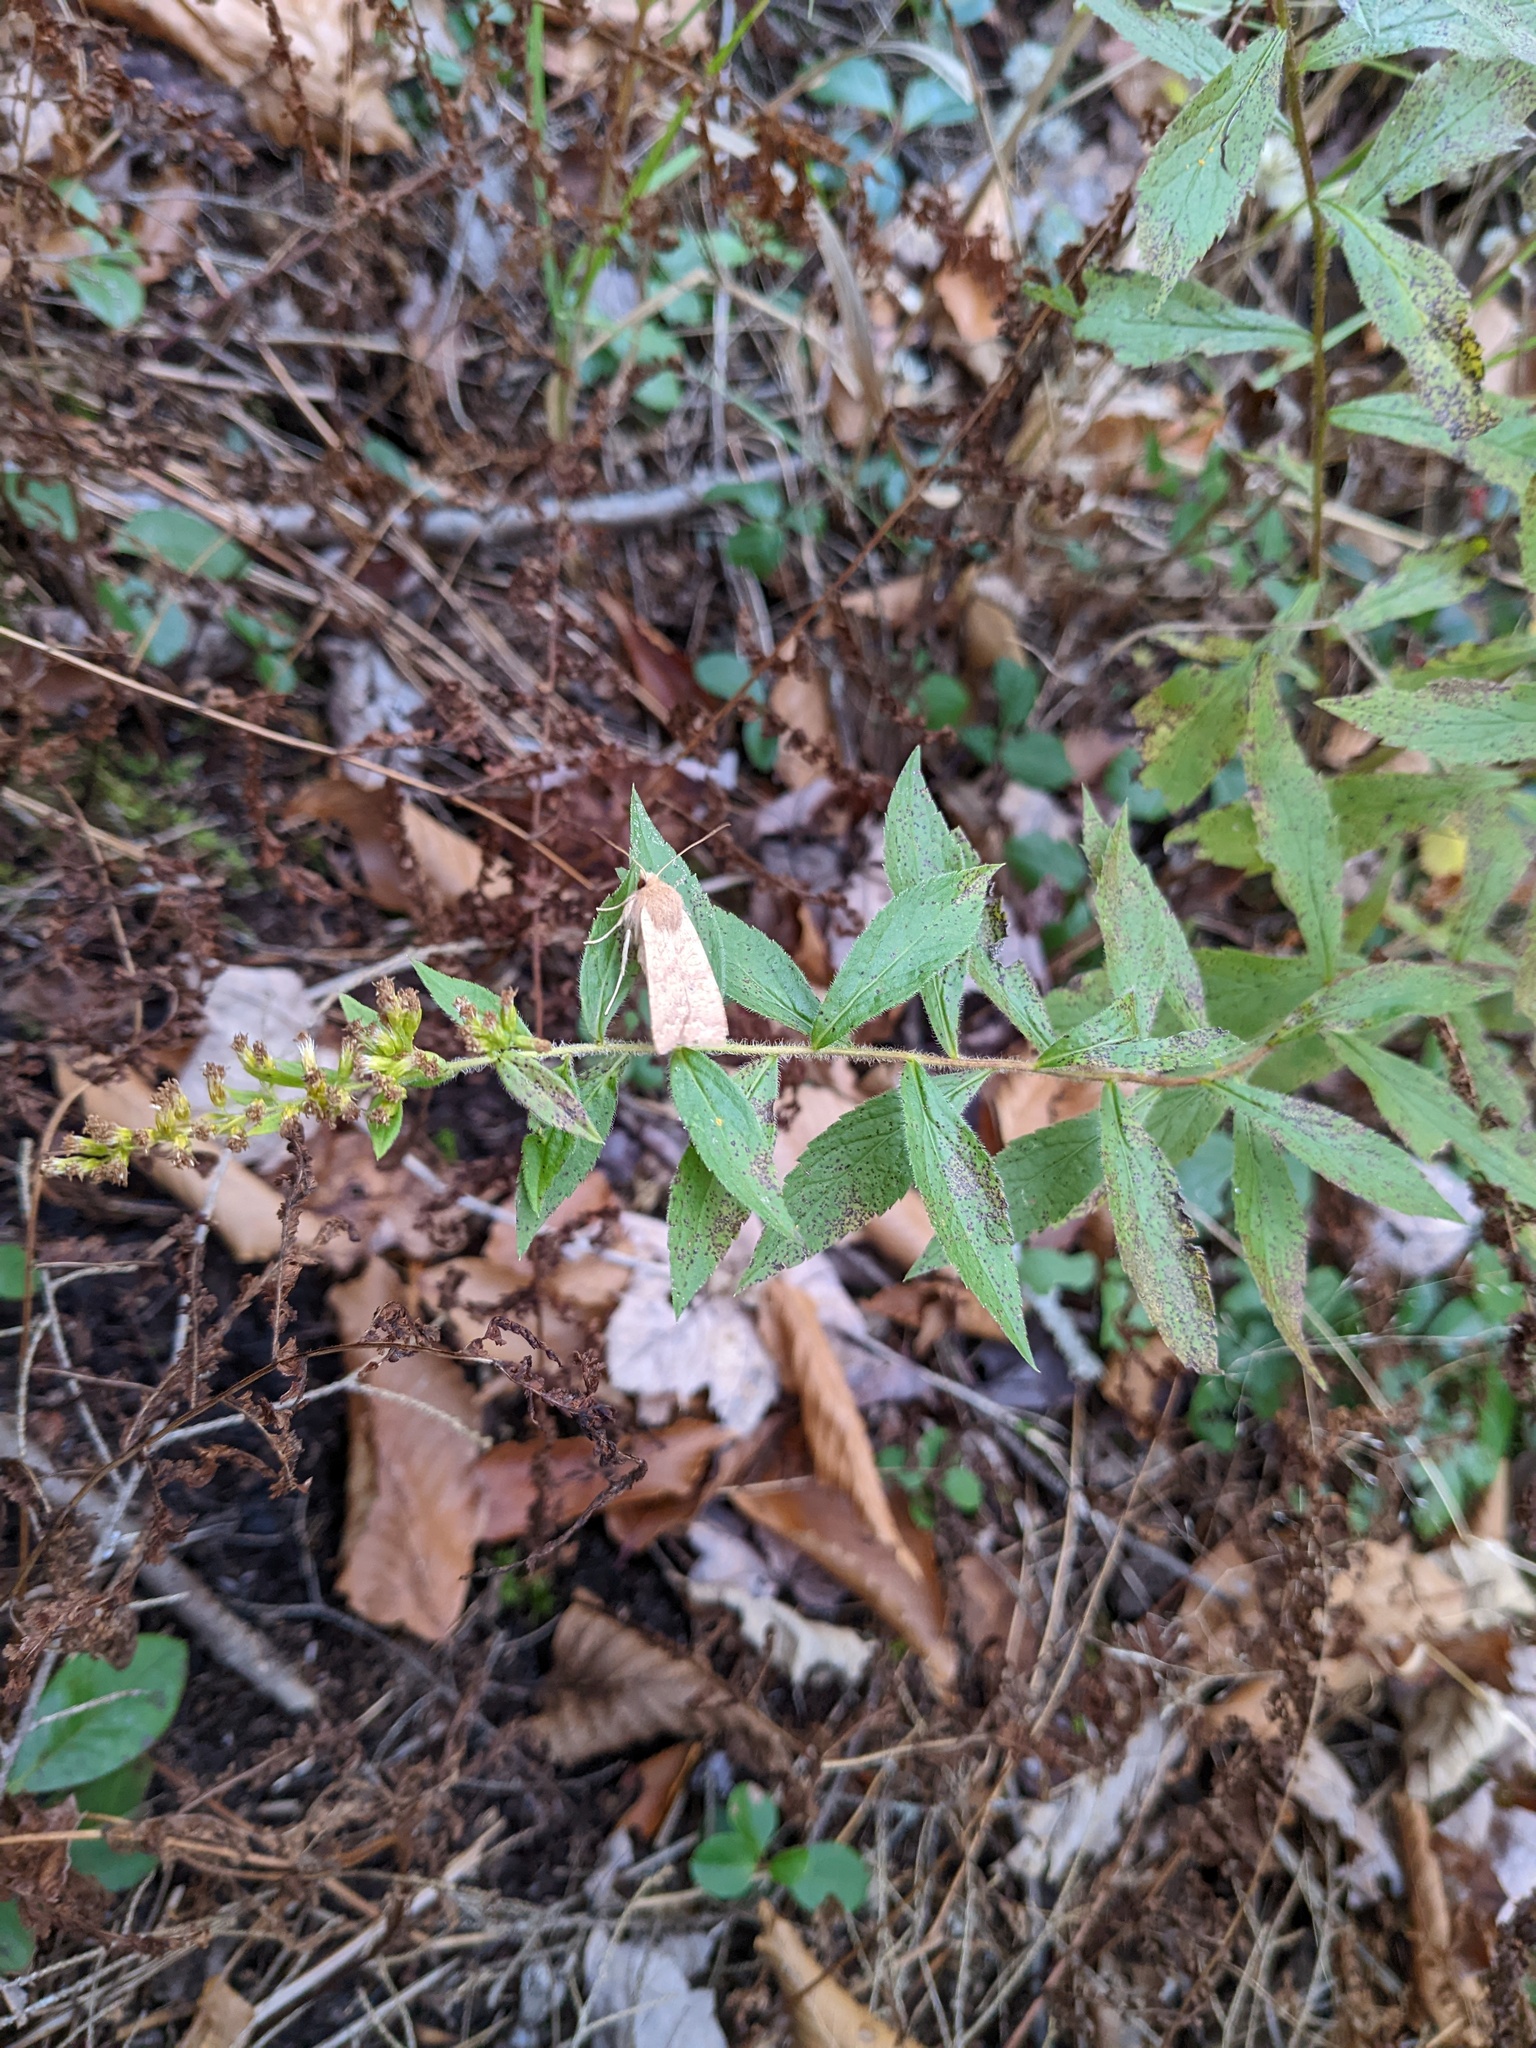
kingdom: Plantae
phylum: Tracheophyta
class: Magnoliopsida
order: Asterales
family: Asteraceae
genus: Solidago
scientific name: Solidago rugosa
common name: Rough-stemmed goldenrod
